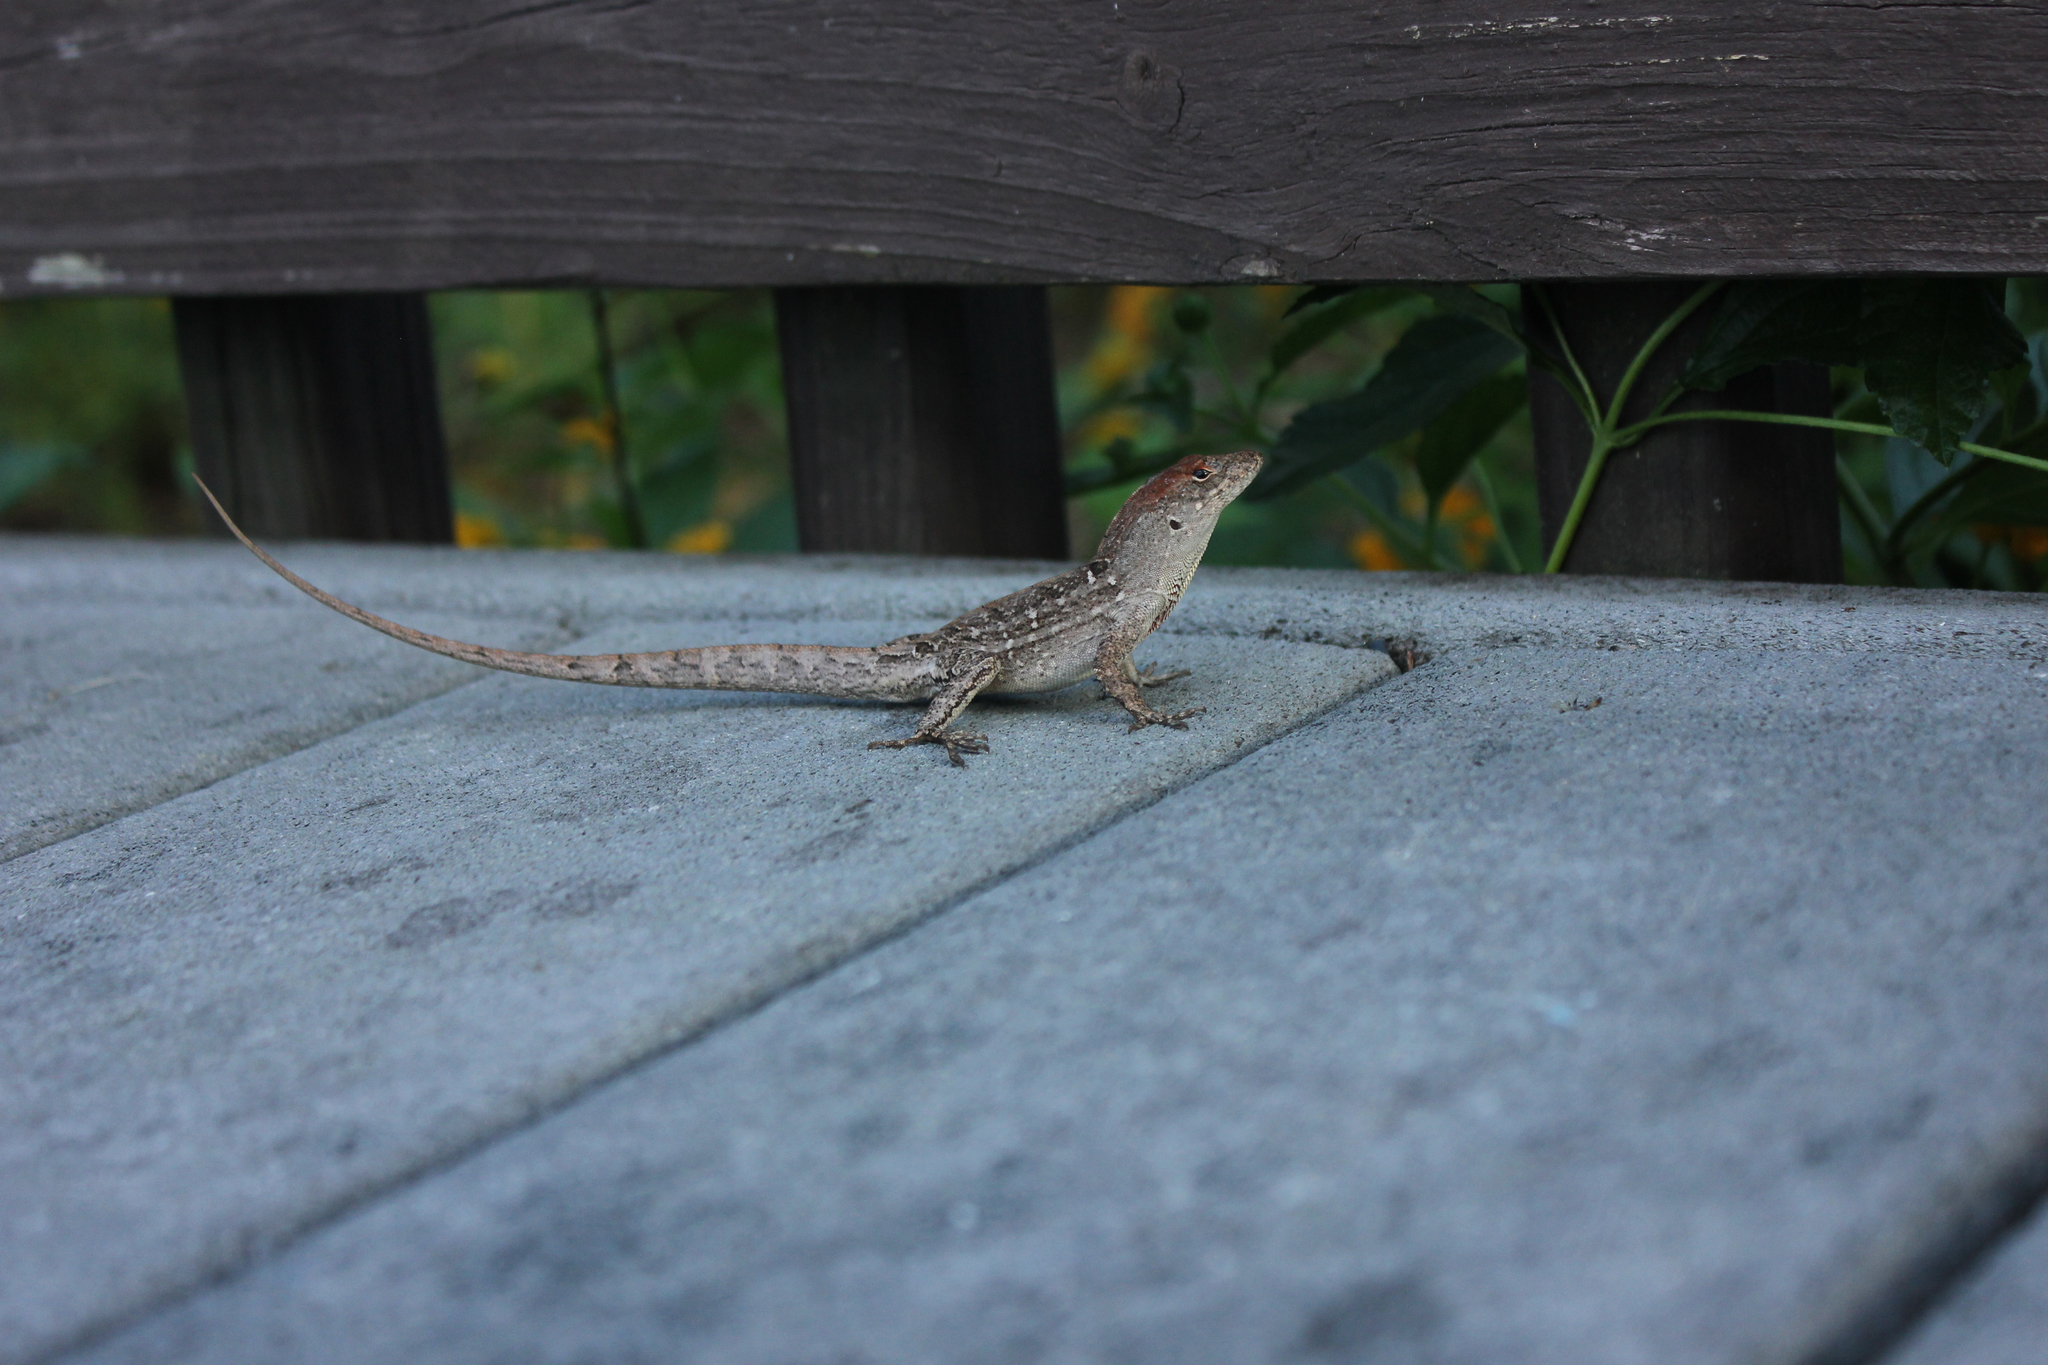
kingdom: Animalia
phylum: Chordata
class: Squamata
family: Dactyloidae
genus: Anolis
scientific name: Anolis sagrei
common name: Brown anole
